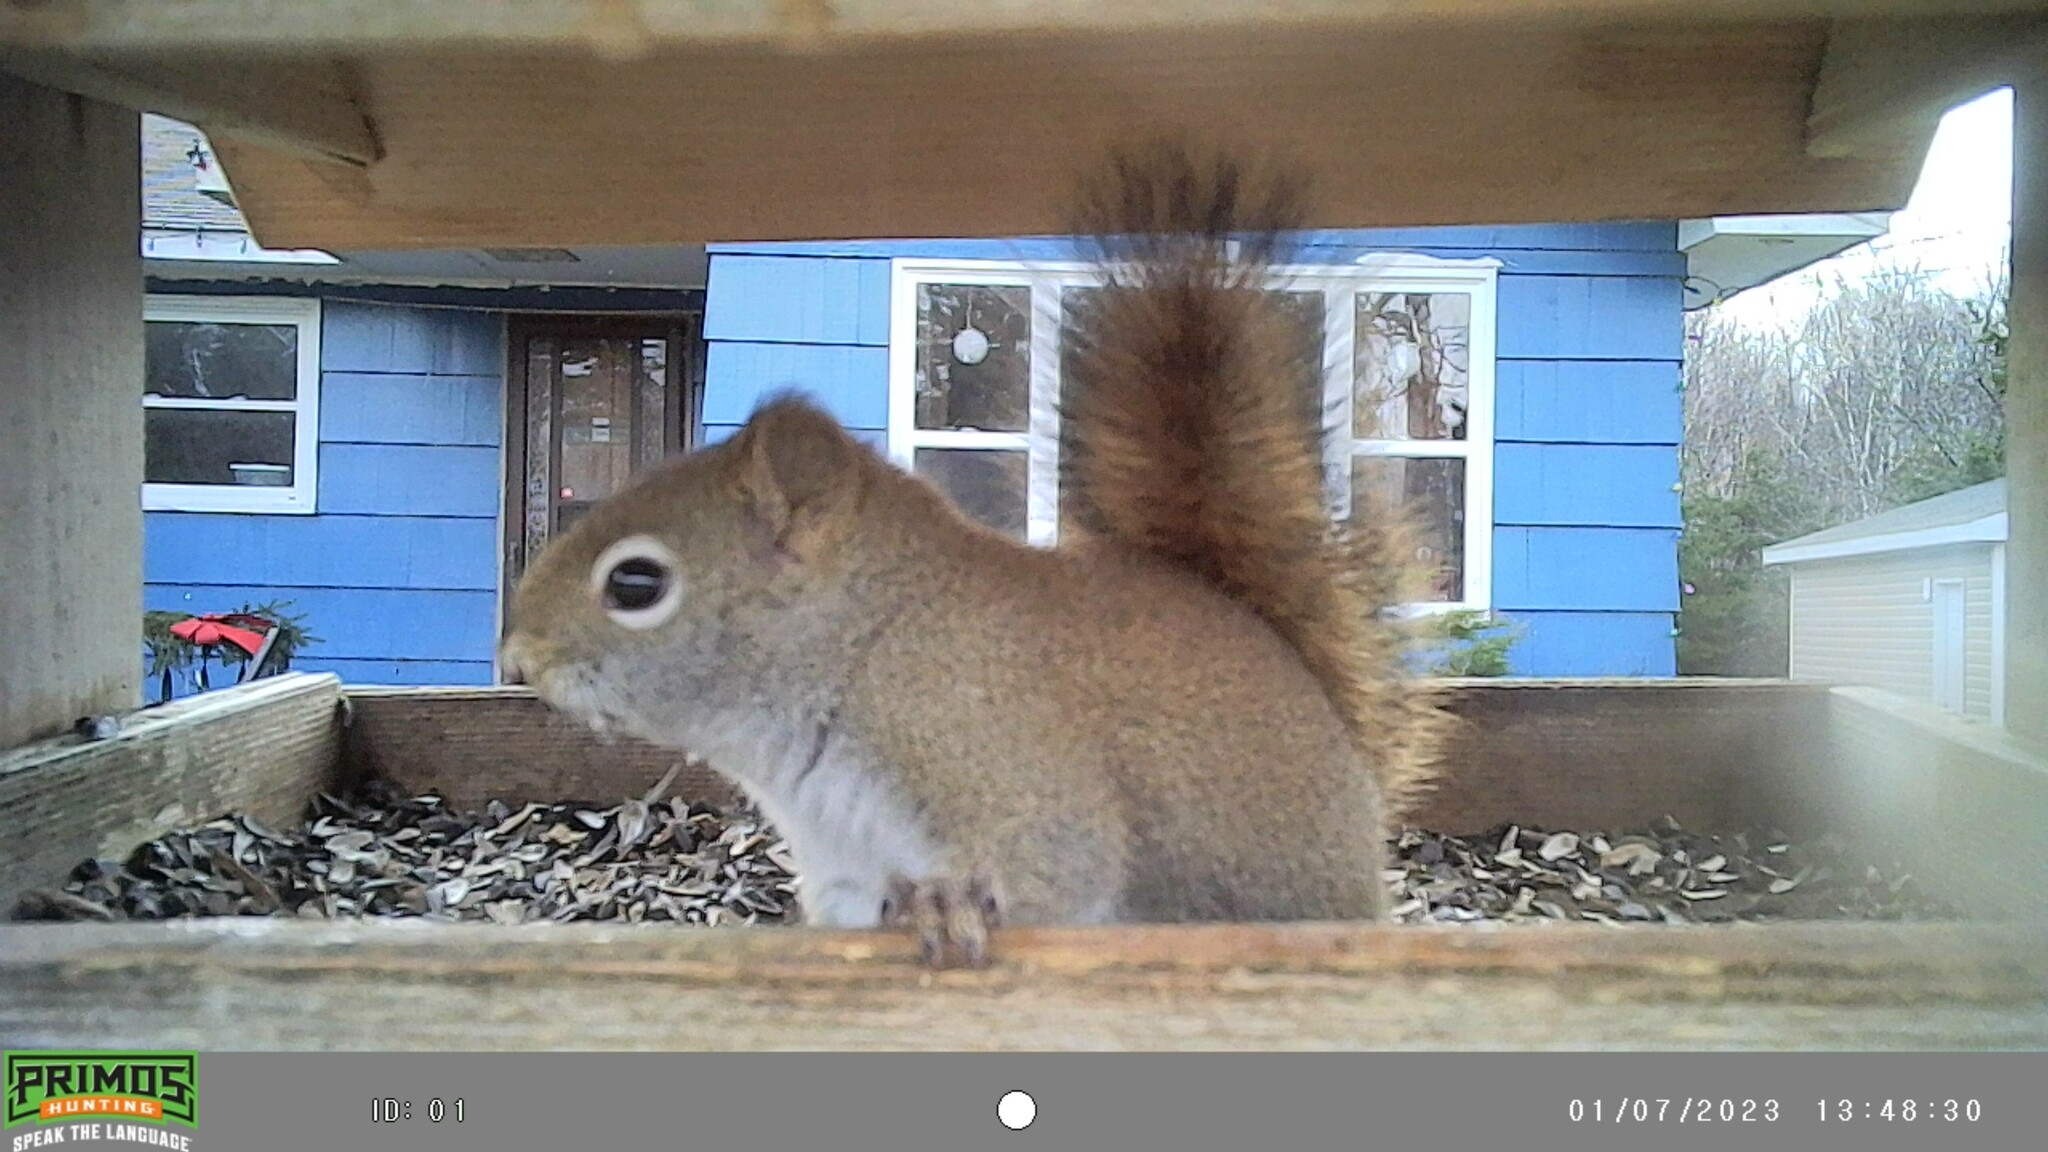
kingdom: Animalia
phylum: Chordata
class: Mammalia
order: Rodentia
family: Sciuridae
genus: Tamiasciurus
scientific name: Tamiasciurus hudsonicus
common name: Red squirrel
